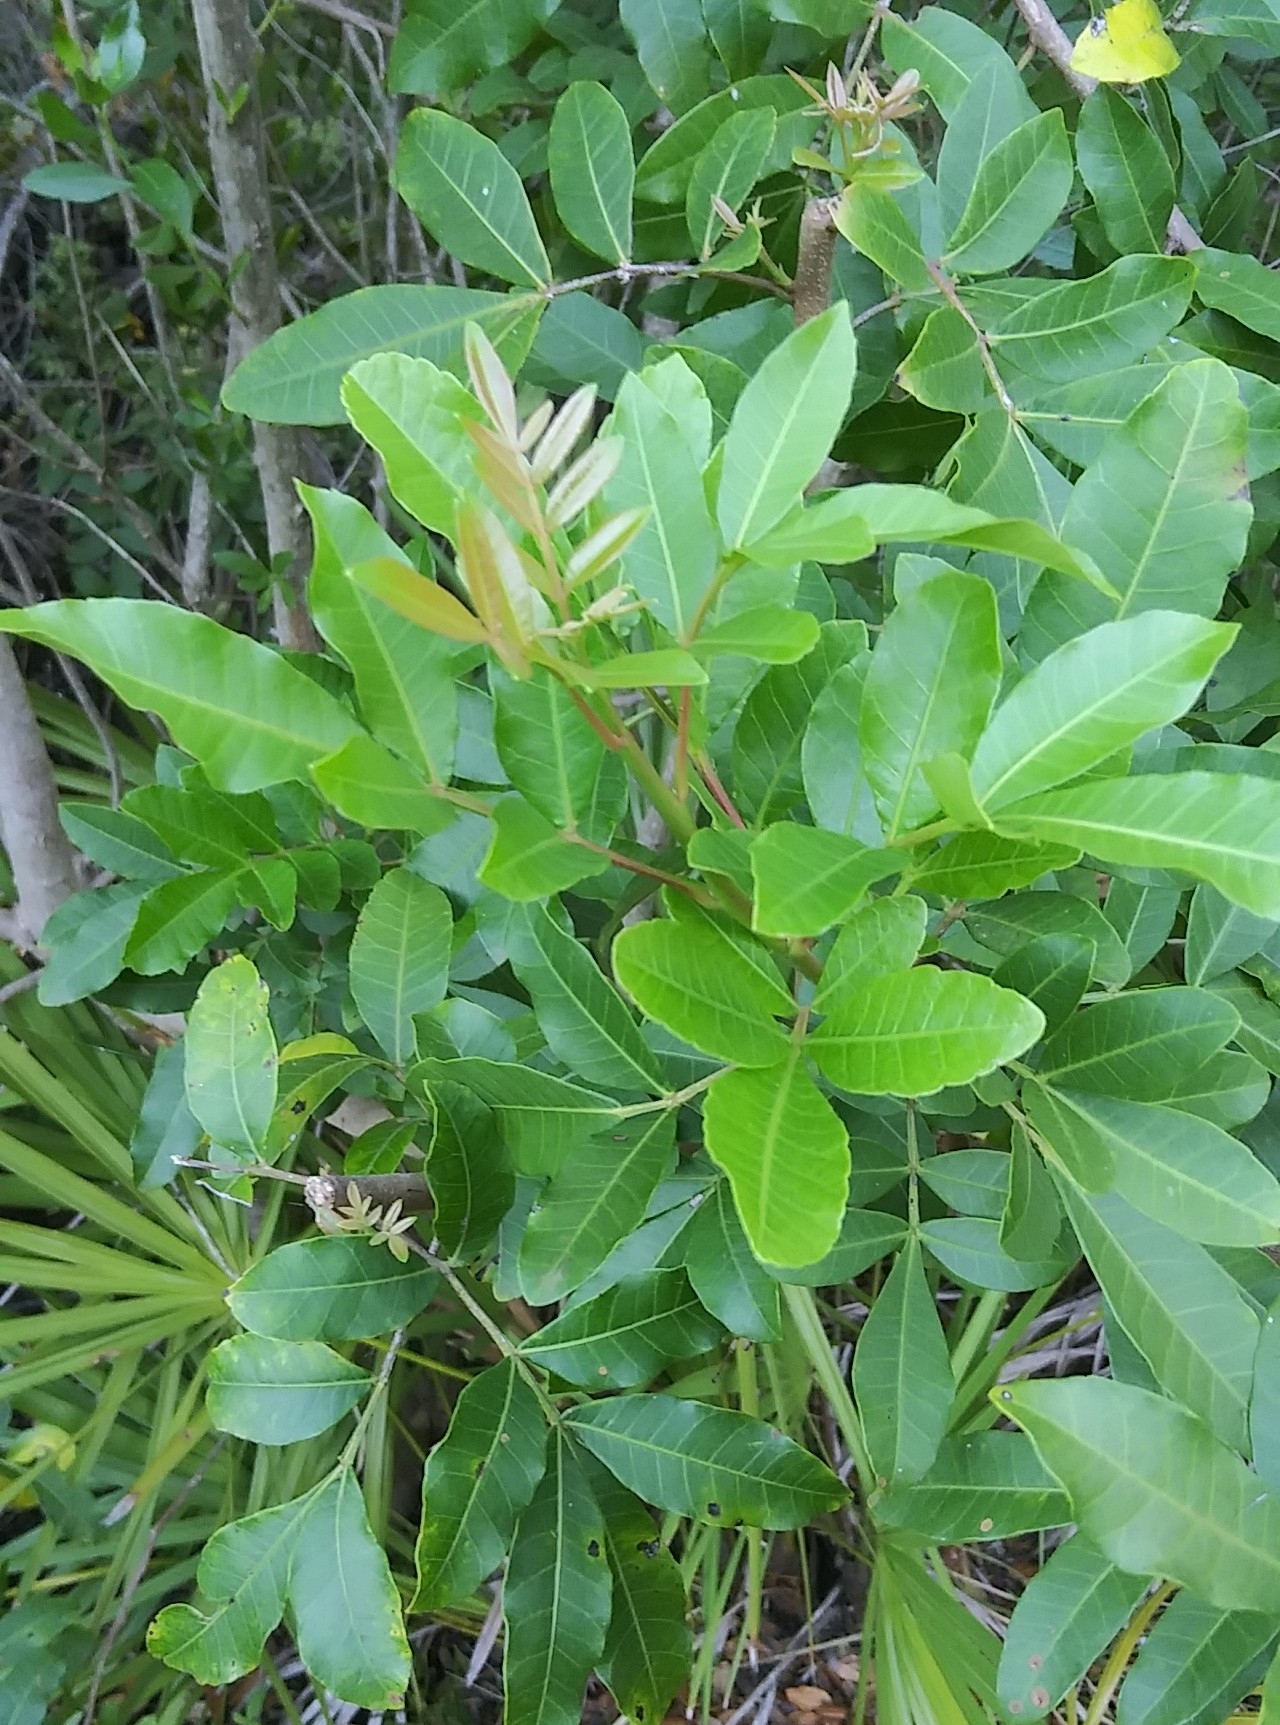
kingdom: Plantae
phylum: Tracheophyta
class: Magnoliopsida
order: Sapindales
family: Anacardiaceae
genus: Schinus
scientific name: Schinus terebinthifolia
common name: Brazilian peppertree
